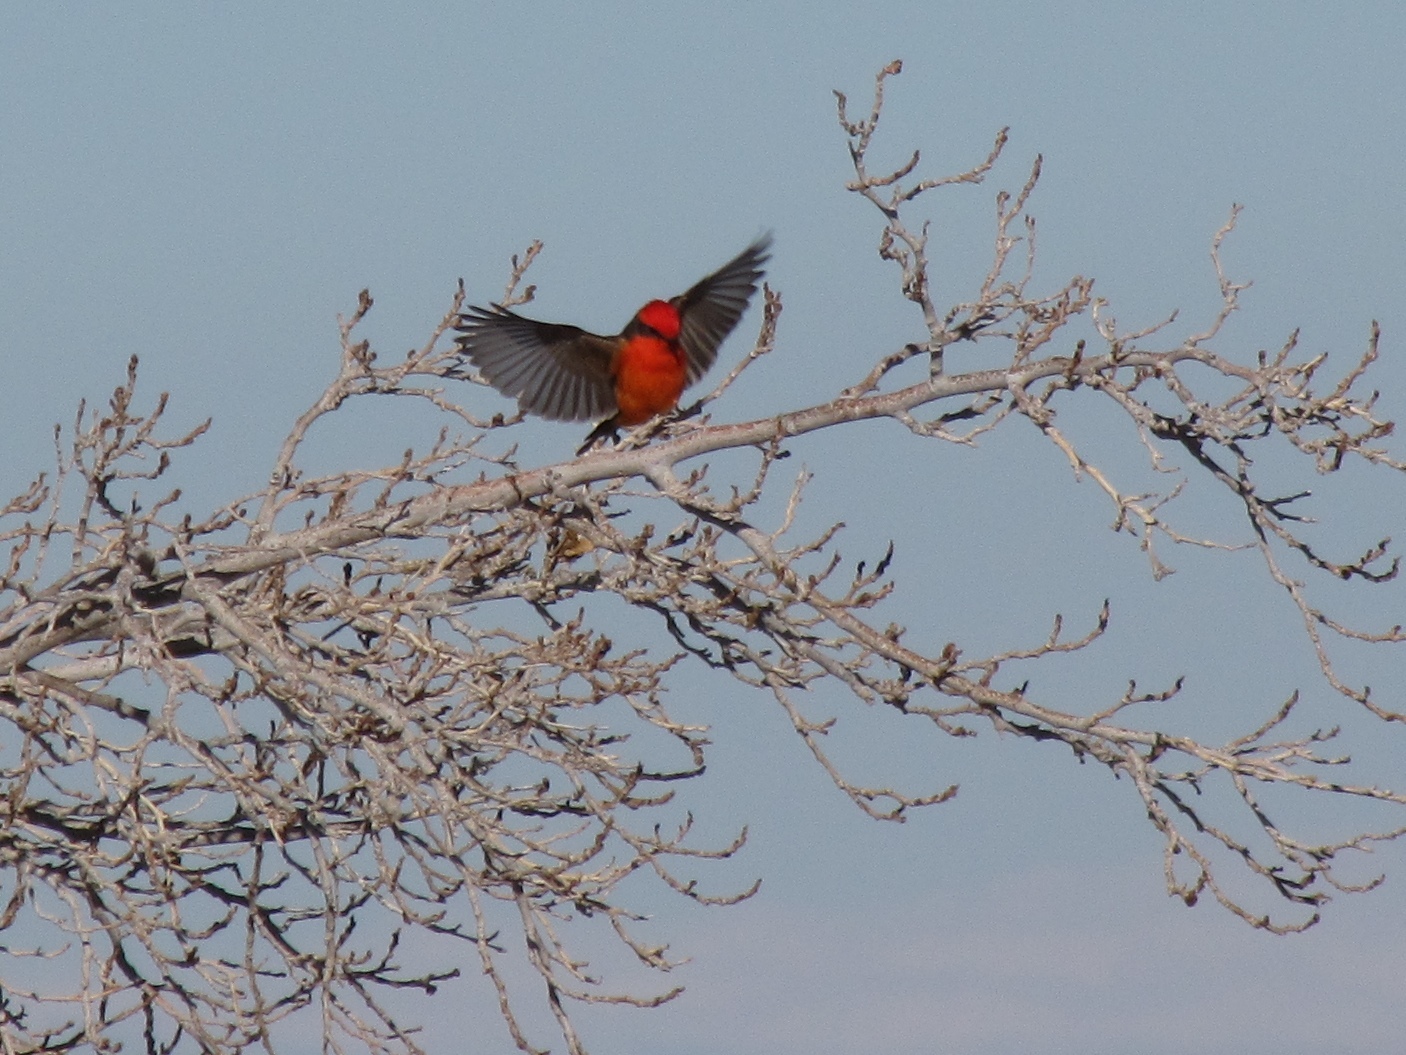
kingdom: Animalia
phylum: Chordata
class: Aves
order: Passeriformes
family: Tyrannidae
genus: Pyrocephalus
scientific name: Pyrocephalus rubinus
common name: Vermilion flycatcher
